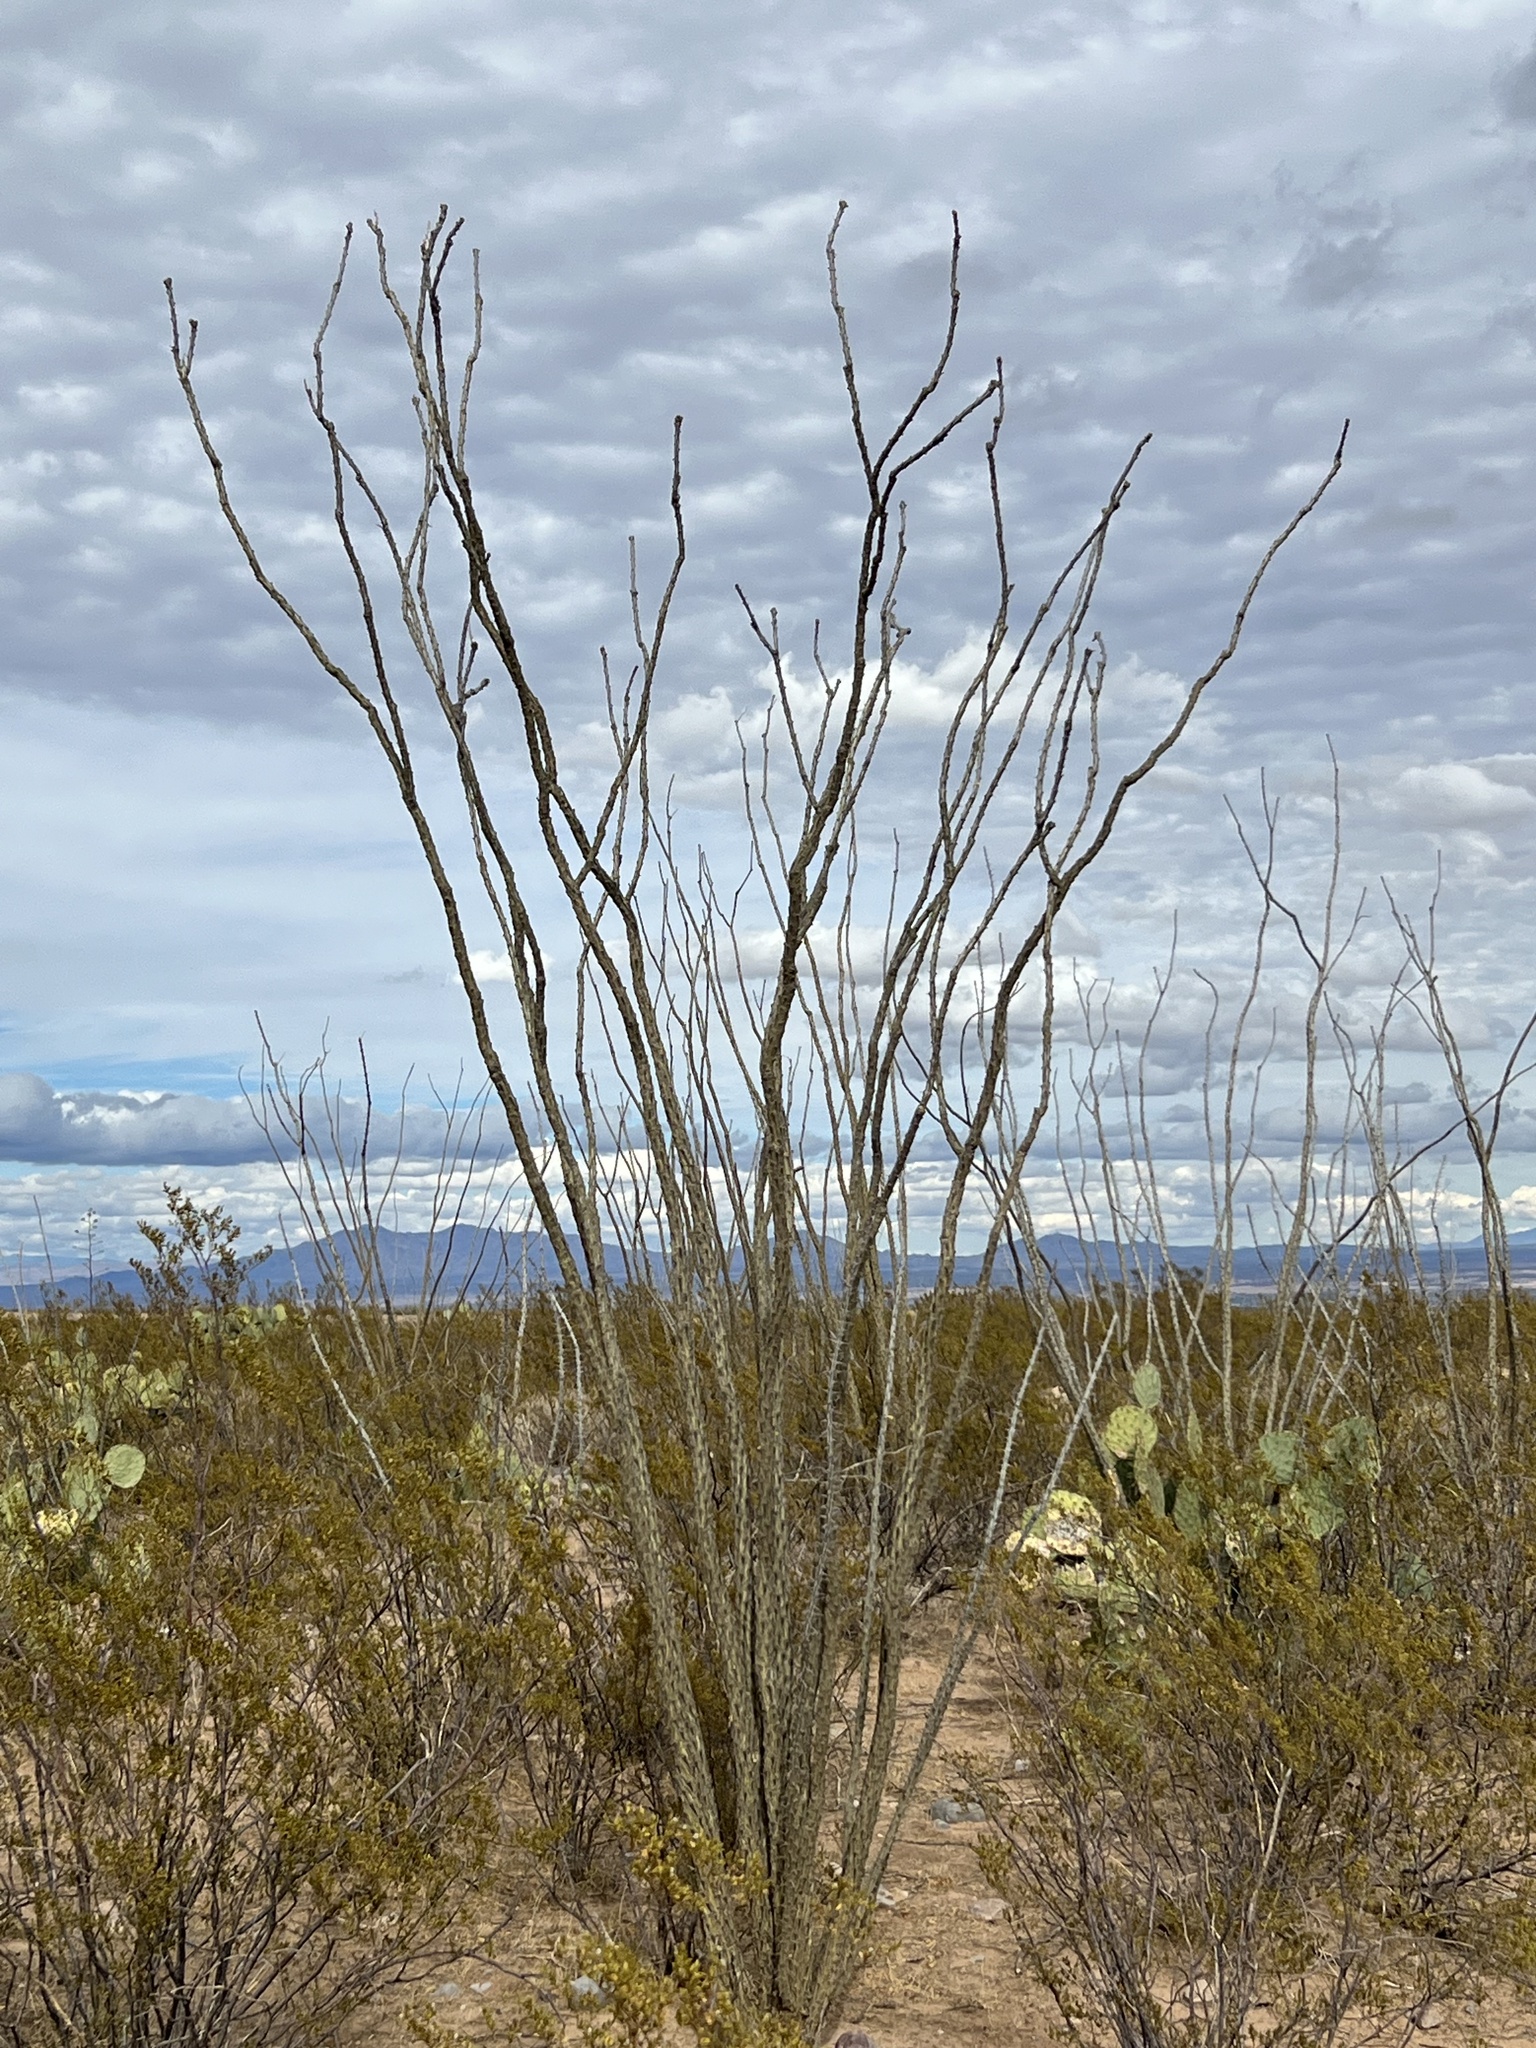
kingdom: Plantae
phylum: Tracheophyta
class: Magnoliopsida
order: Ericales
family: Fouquieriaceae
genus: Fouquieria
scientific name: Fouquieria splendens
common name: Vine-cactus
